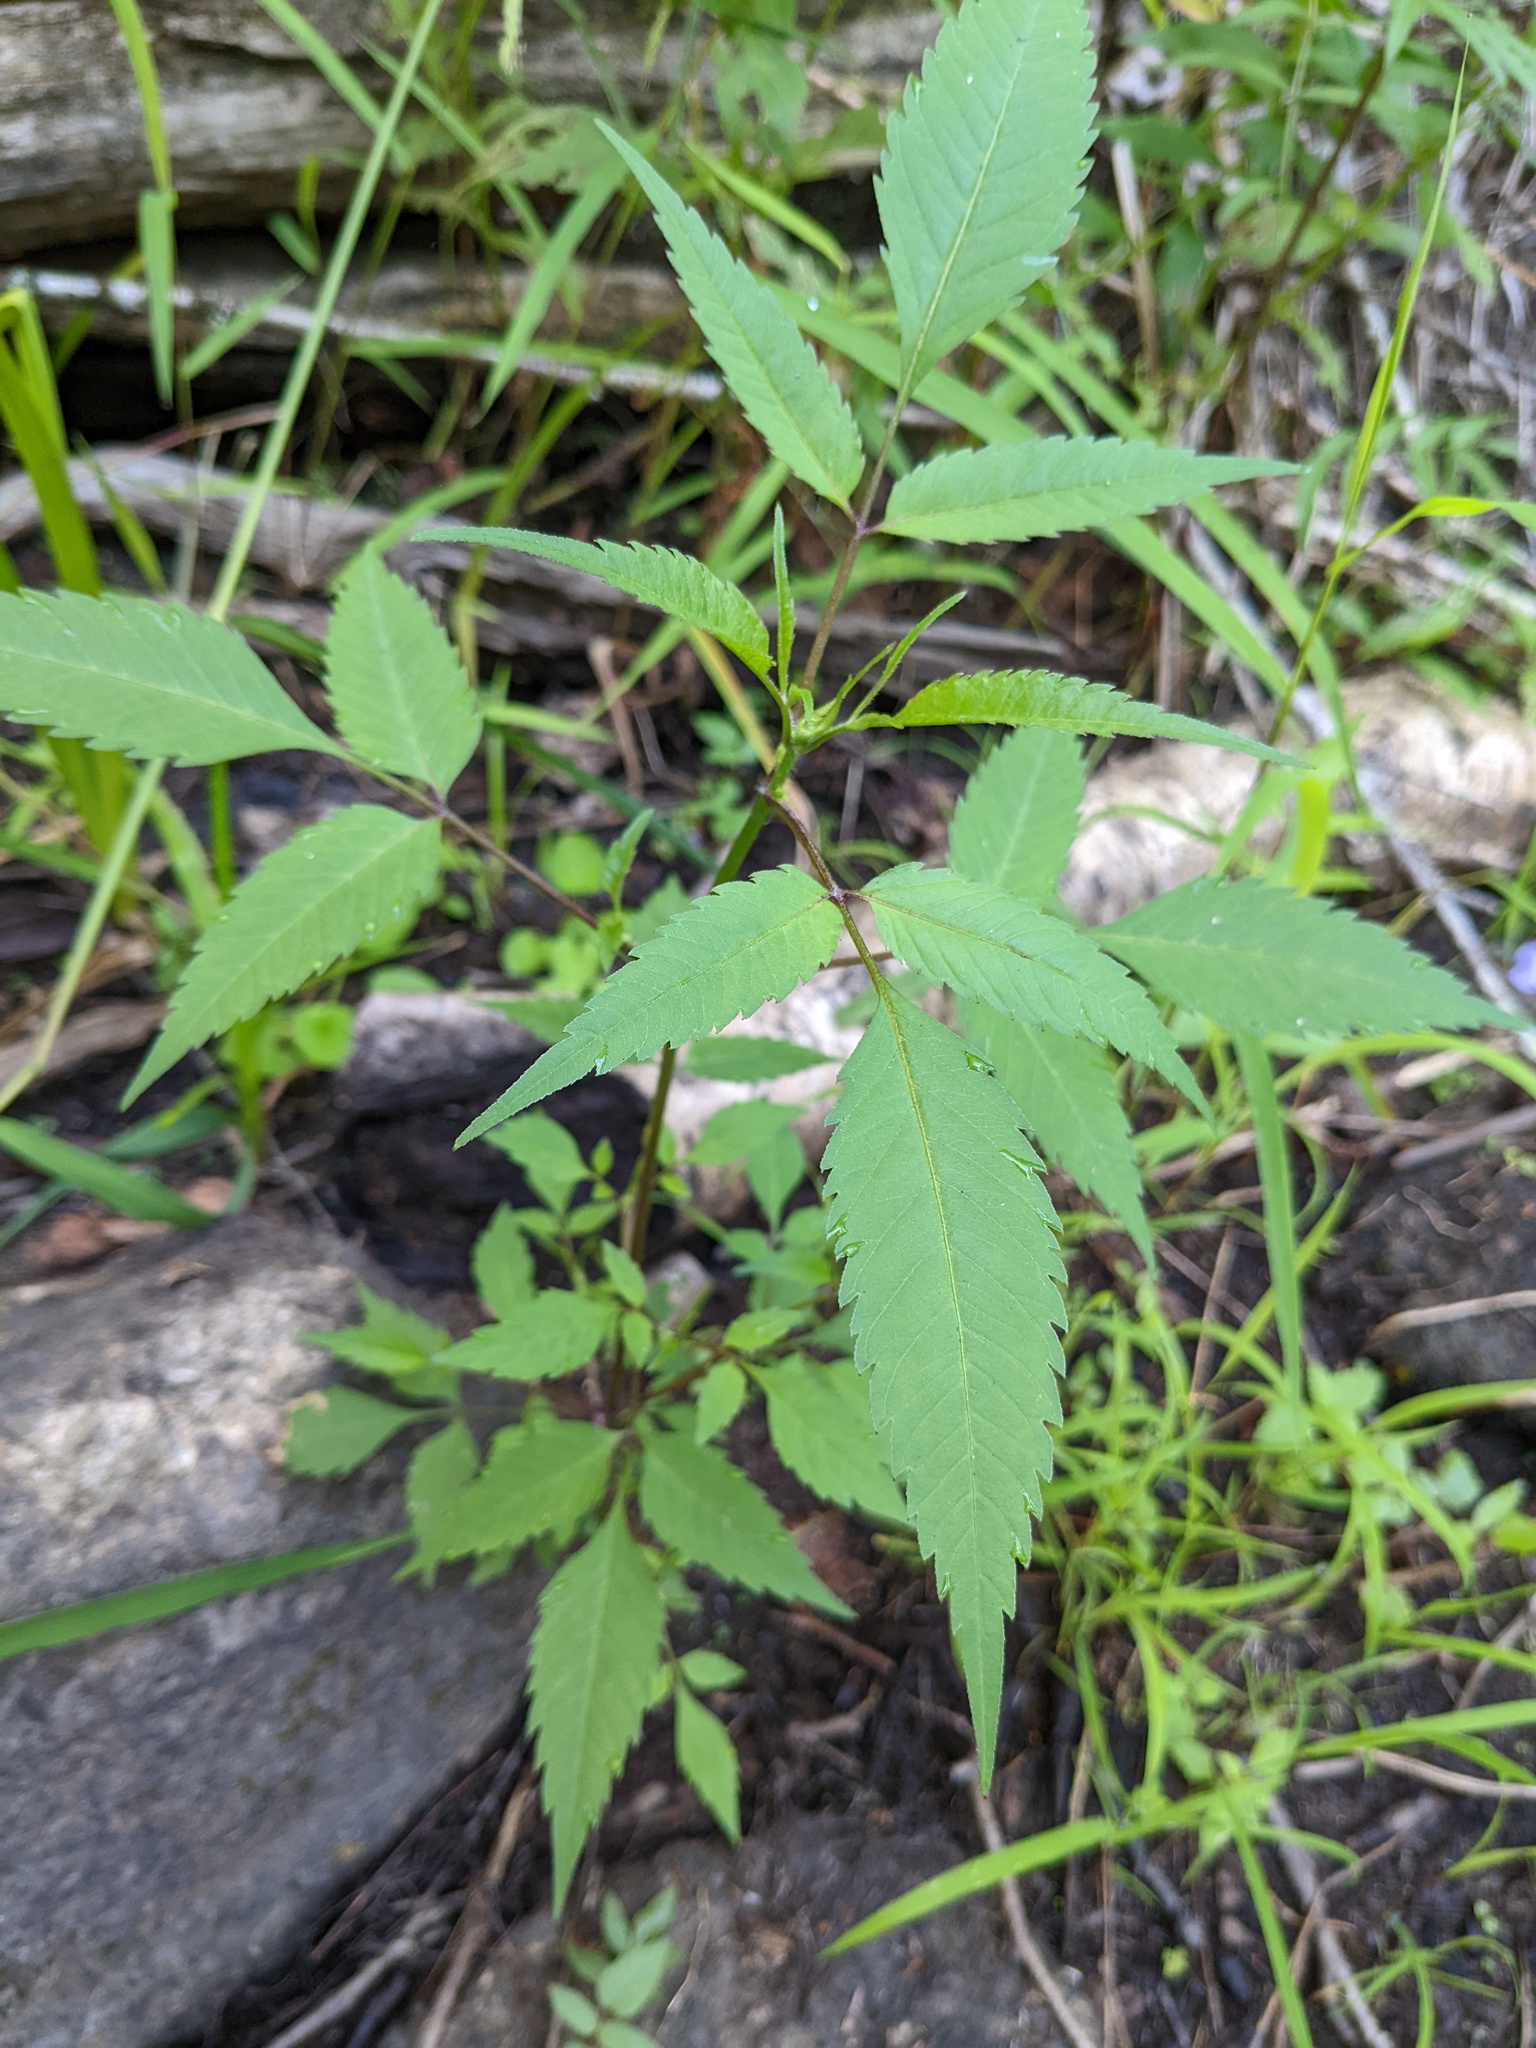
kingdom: Plantae
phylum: Tracheophyta
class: Magnoliopsida
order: Asterales
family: Asteraceae
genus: Bidens
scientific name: Bidens frondosa
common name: Beggarticks
